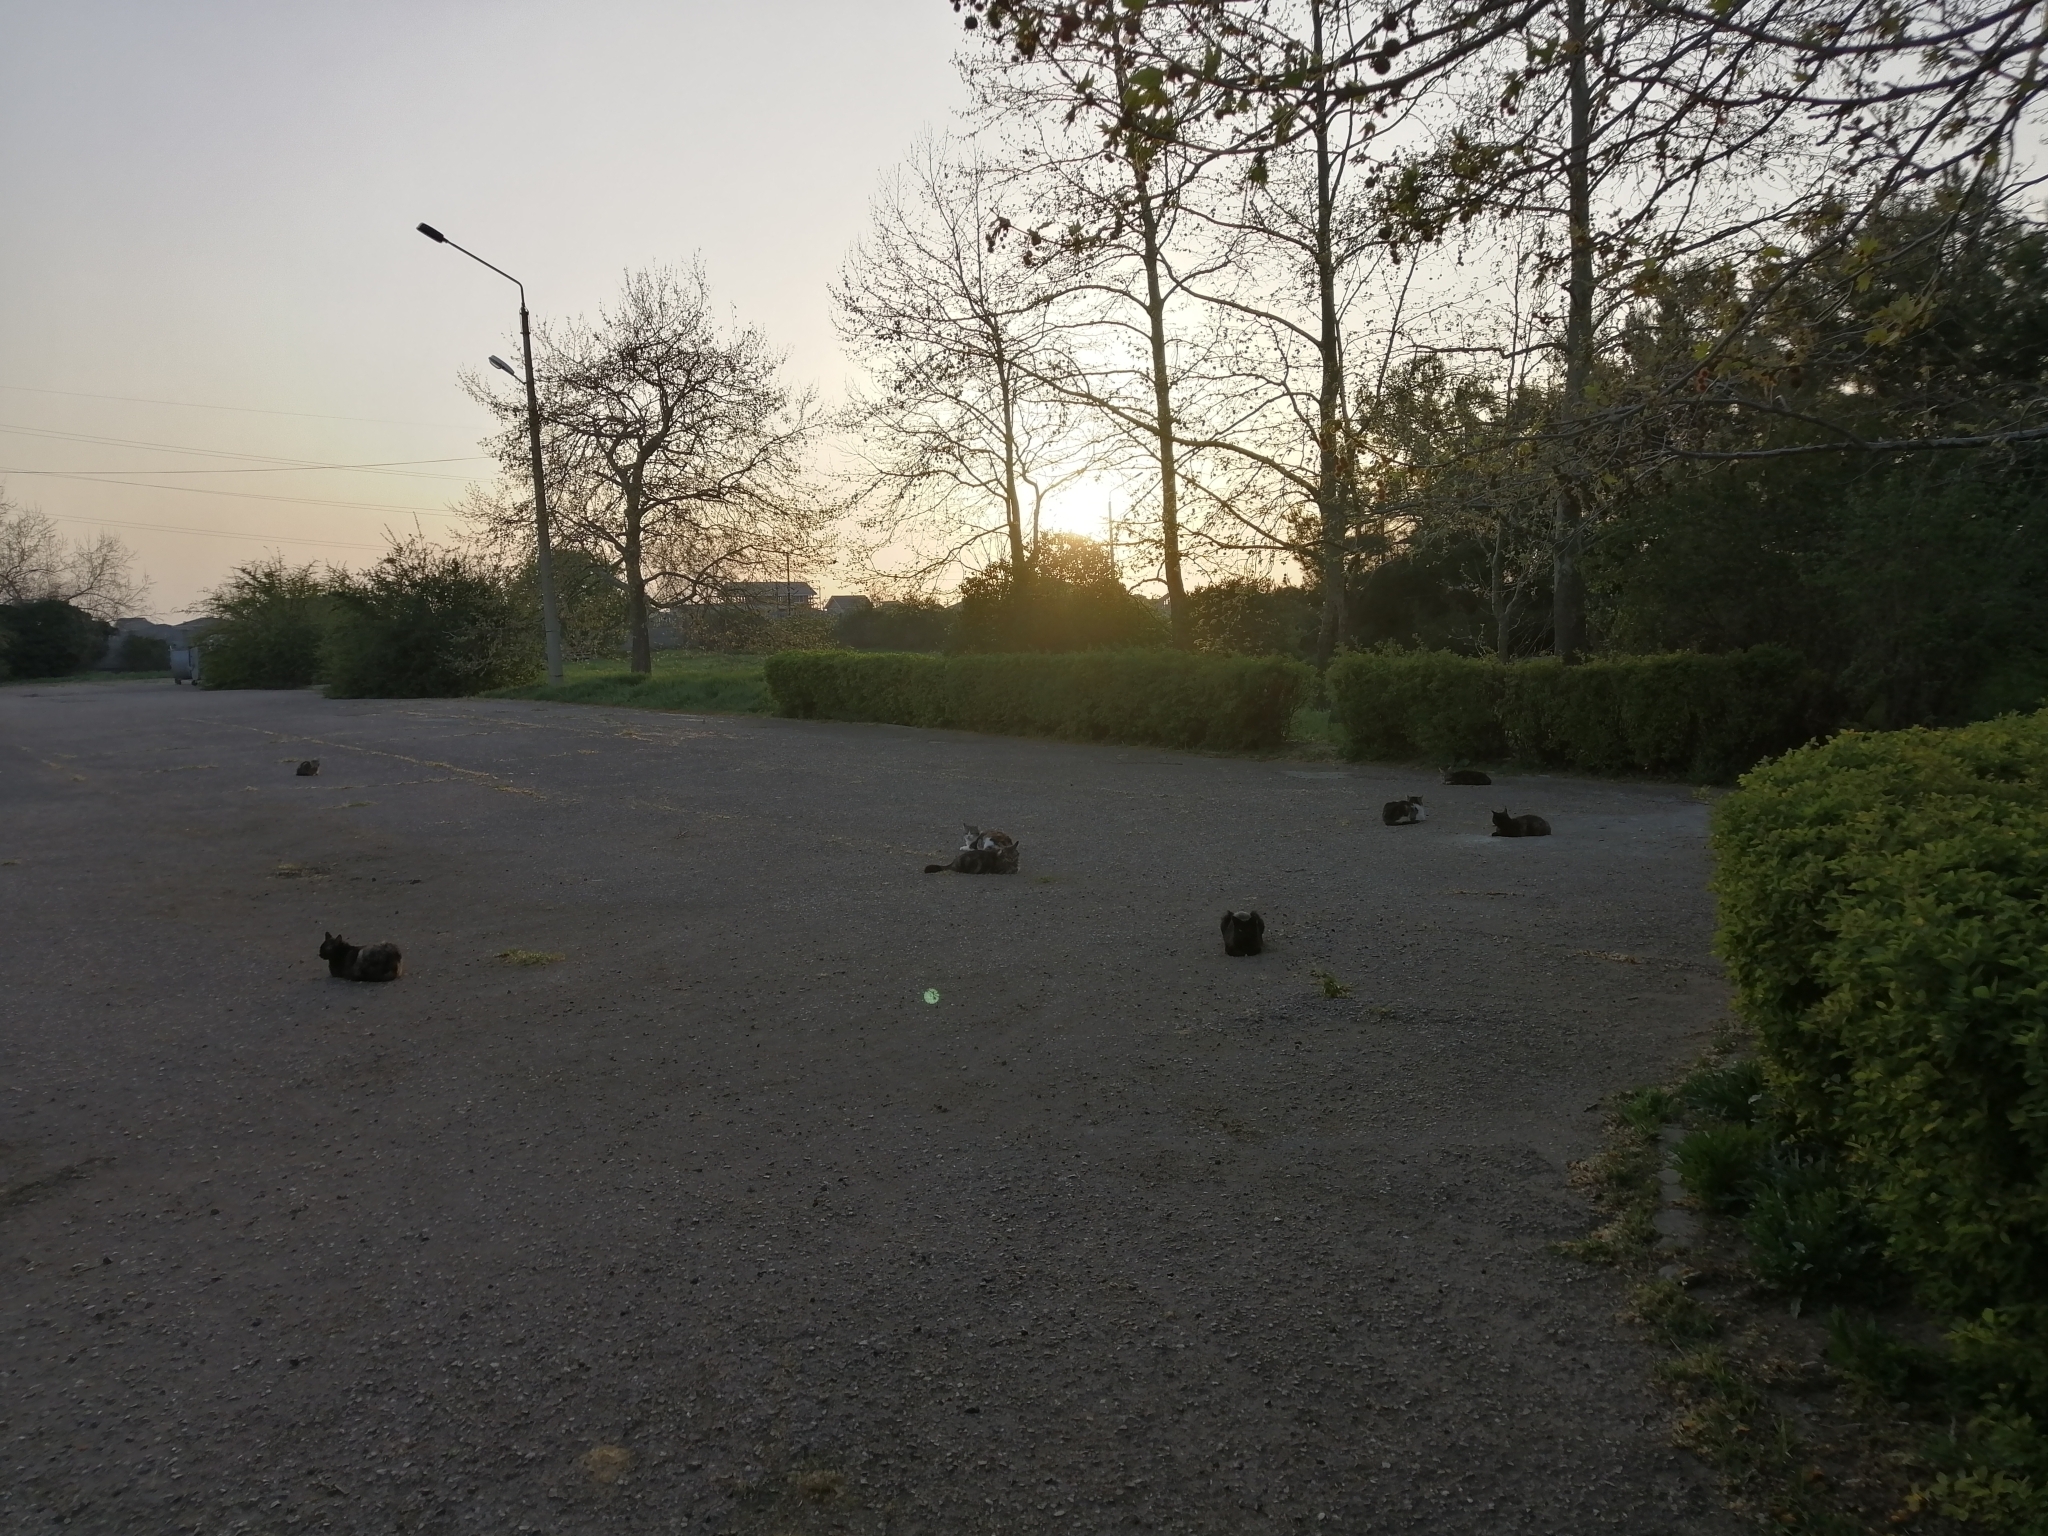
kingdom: Animalia
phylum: Chordata
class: Mammalia
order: Carnivora
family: Felidae
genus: Felis
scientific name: Felis catus
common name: Domestic cat
